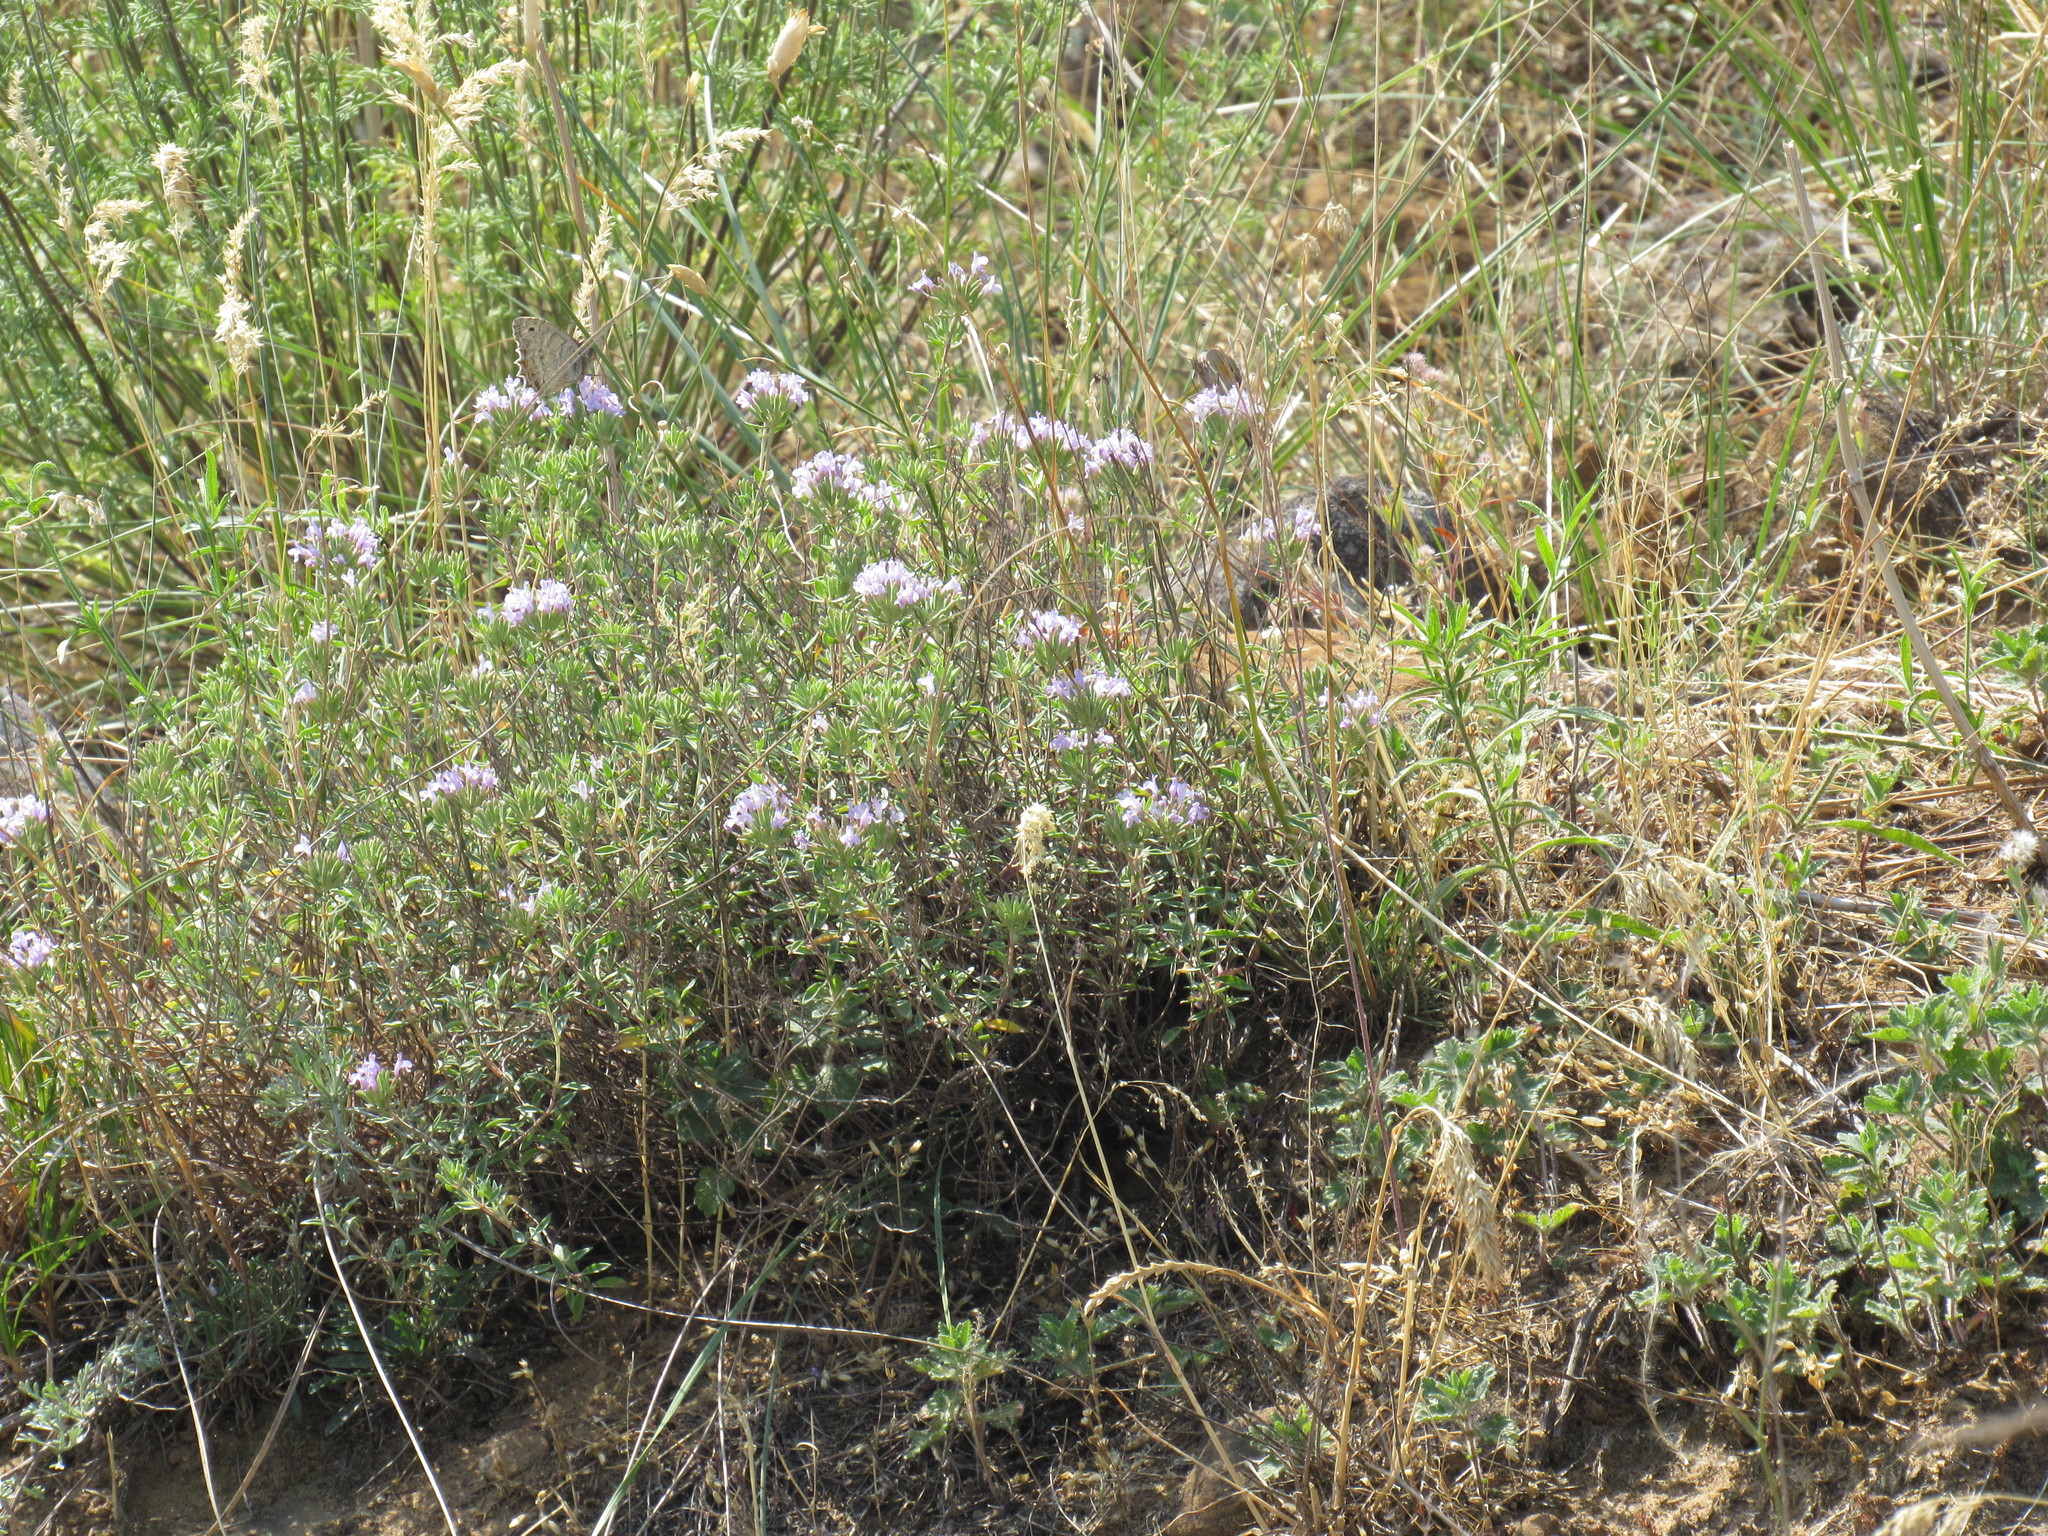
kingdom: Plantae
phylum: Tracheophyta
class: Magnoliopsida
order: Lamiales
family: Lamiaceae
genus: Ziziphora
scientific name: Ziziphora
